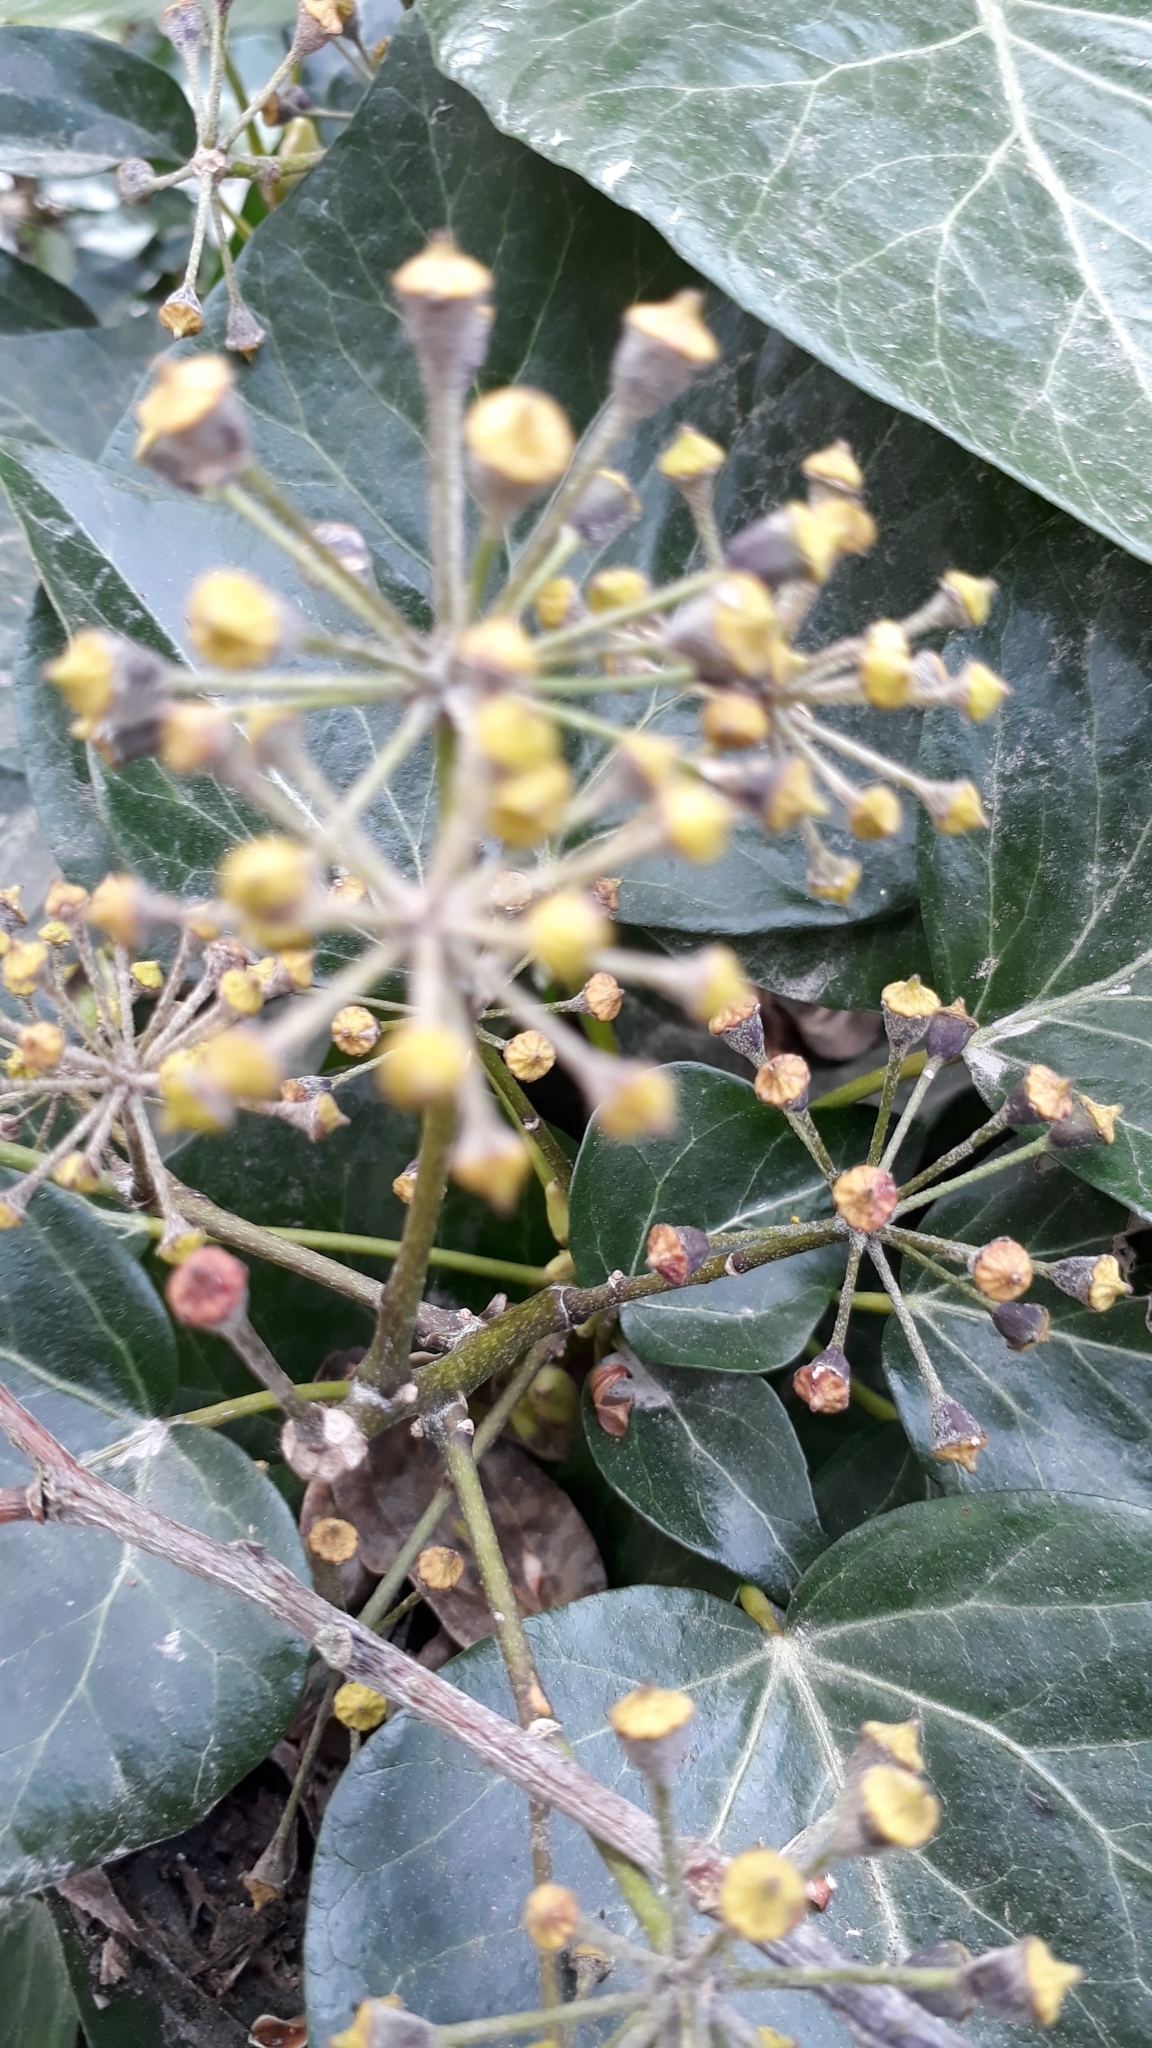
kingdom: Plantae
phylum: Tracheophyta
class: Magnoliopsida
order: Apiales
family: Araliaceae
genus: Hedera
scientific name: Hedera helix
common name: Ivy
